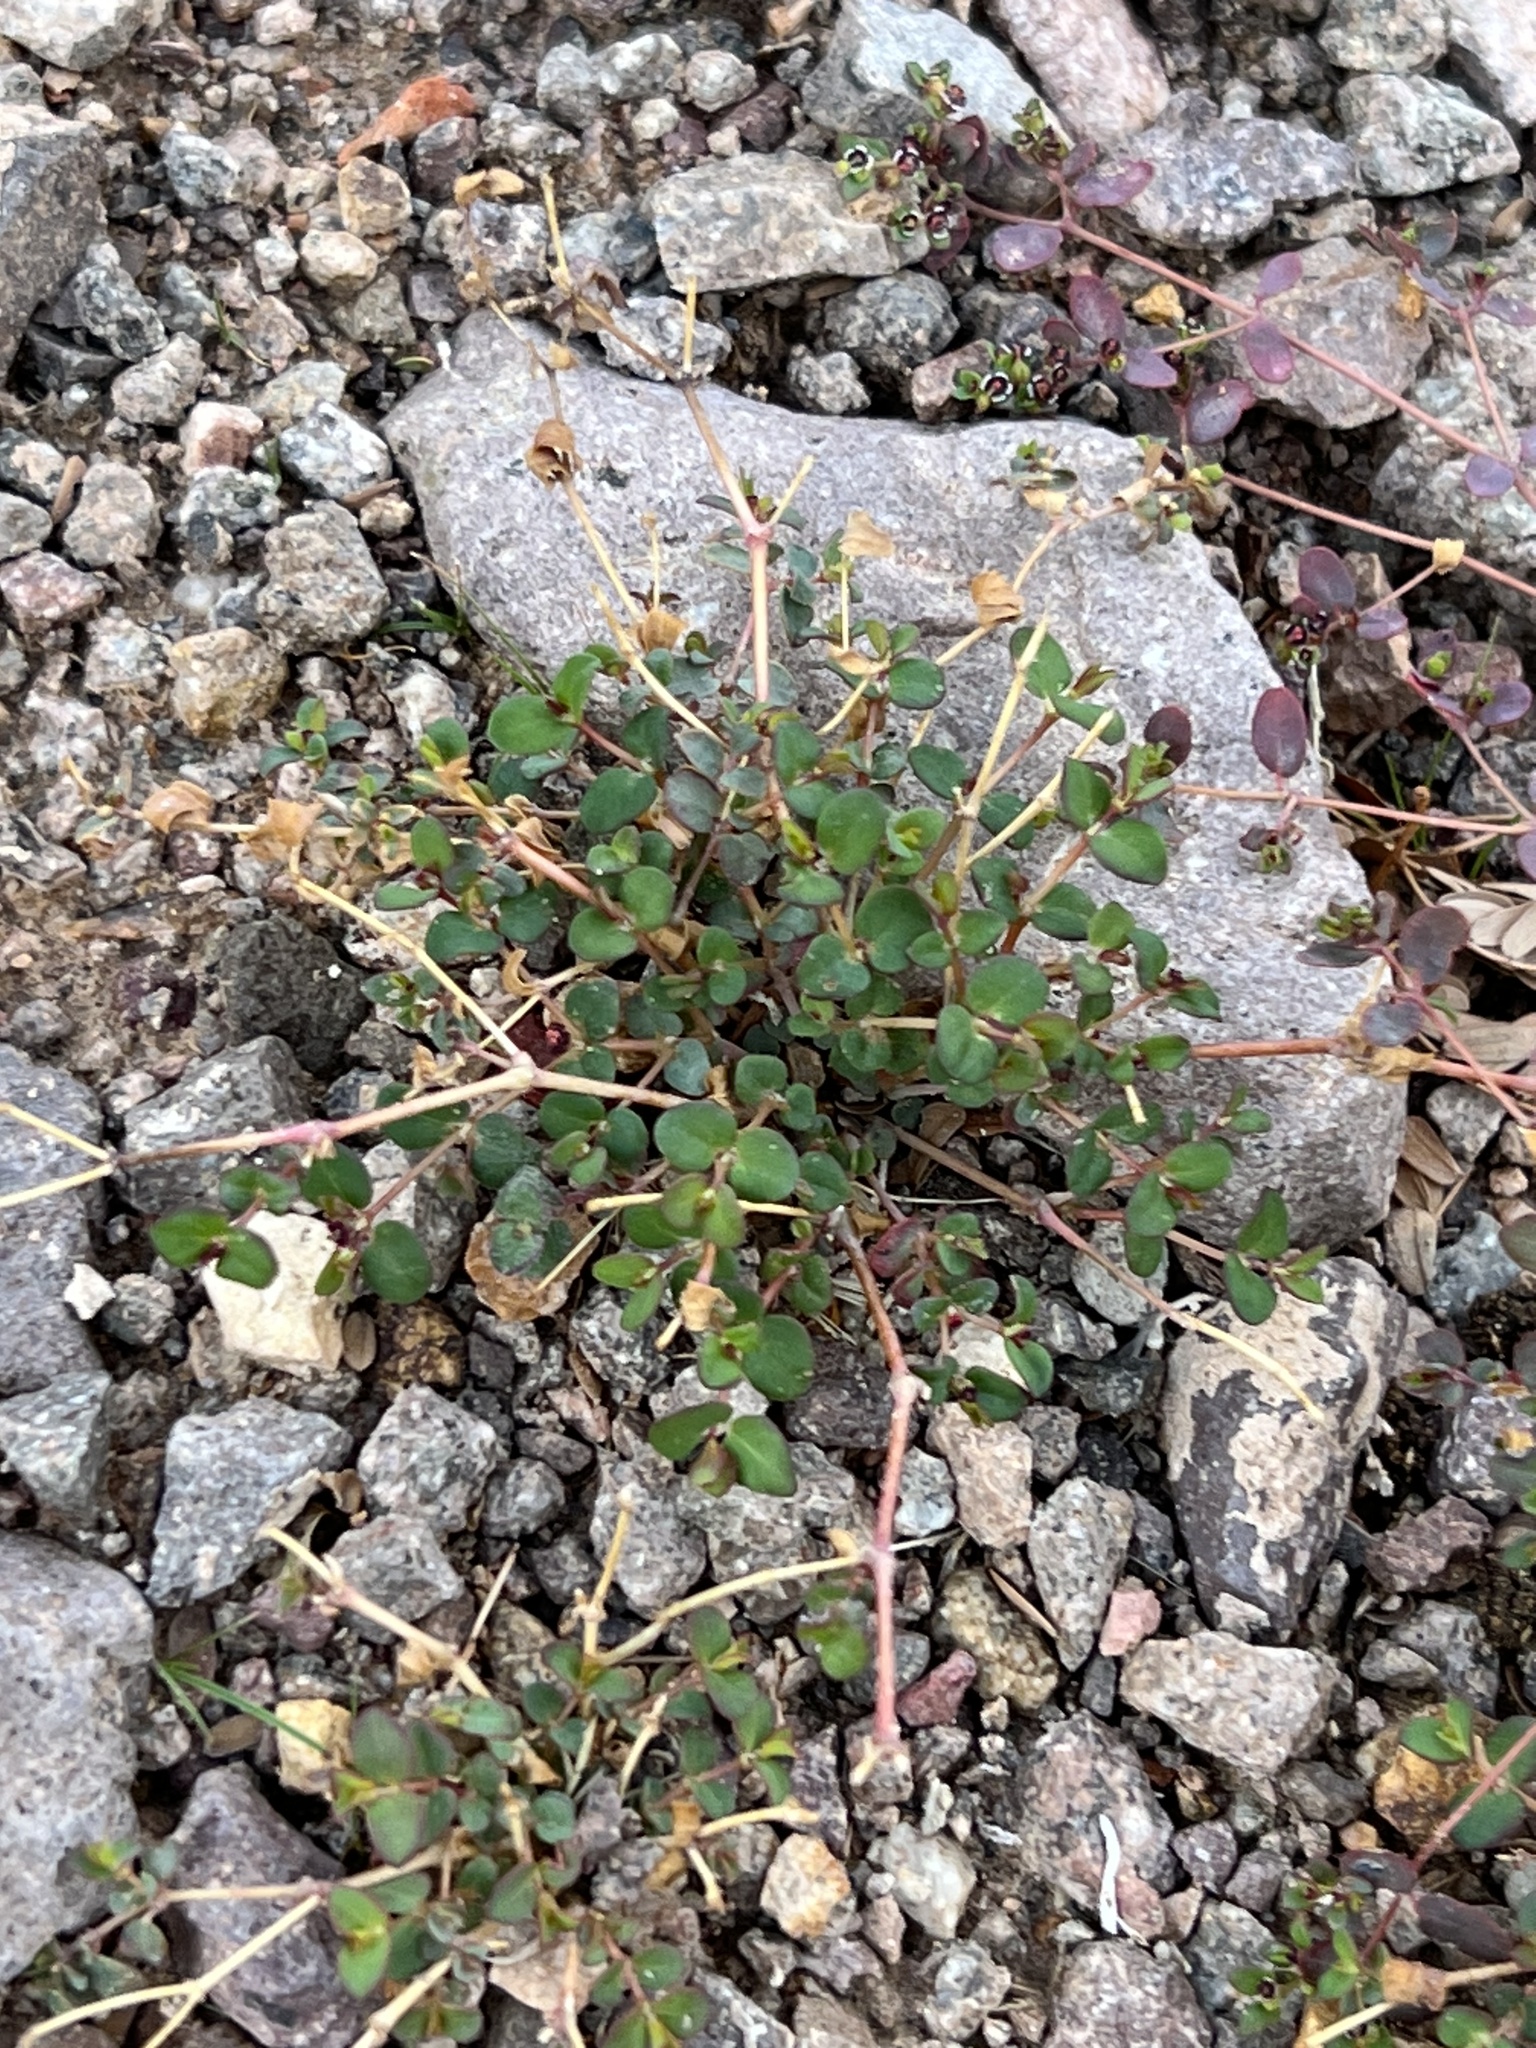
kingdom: Plantae
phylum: Tracheophyta
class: Magnoliopsida
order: Malpighiales
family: Euphorbiaceae
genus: Euphorbia
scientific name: Euphorbia polycarpa
